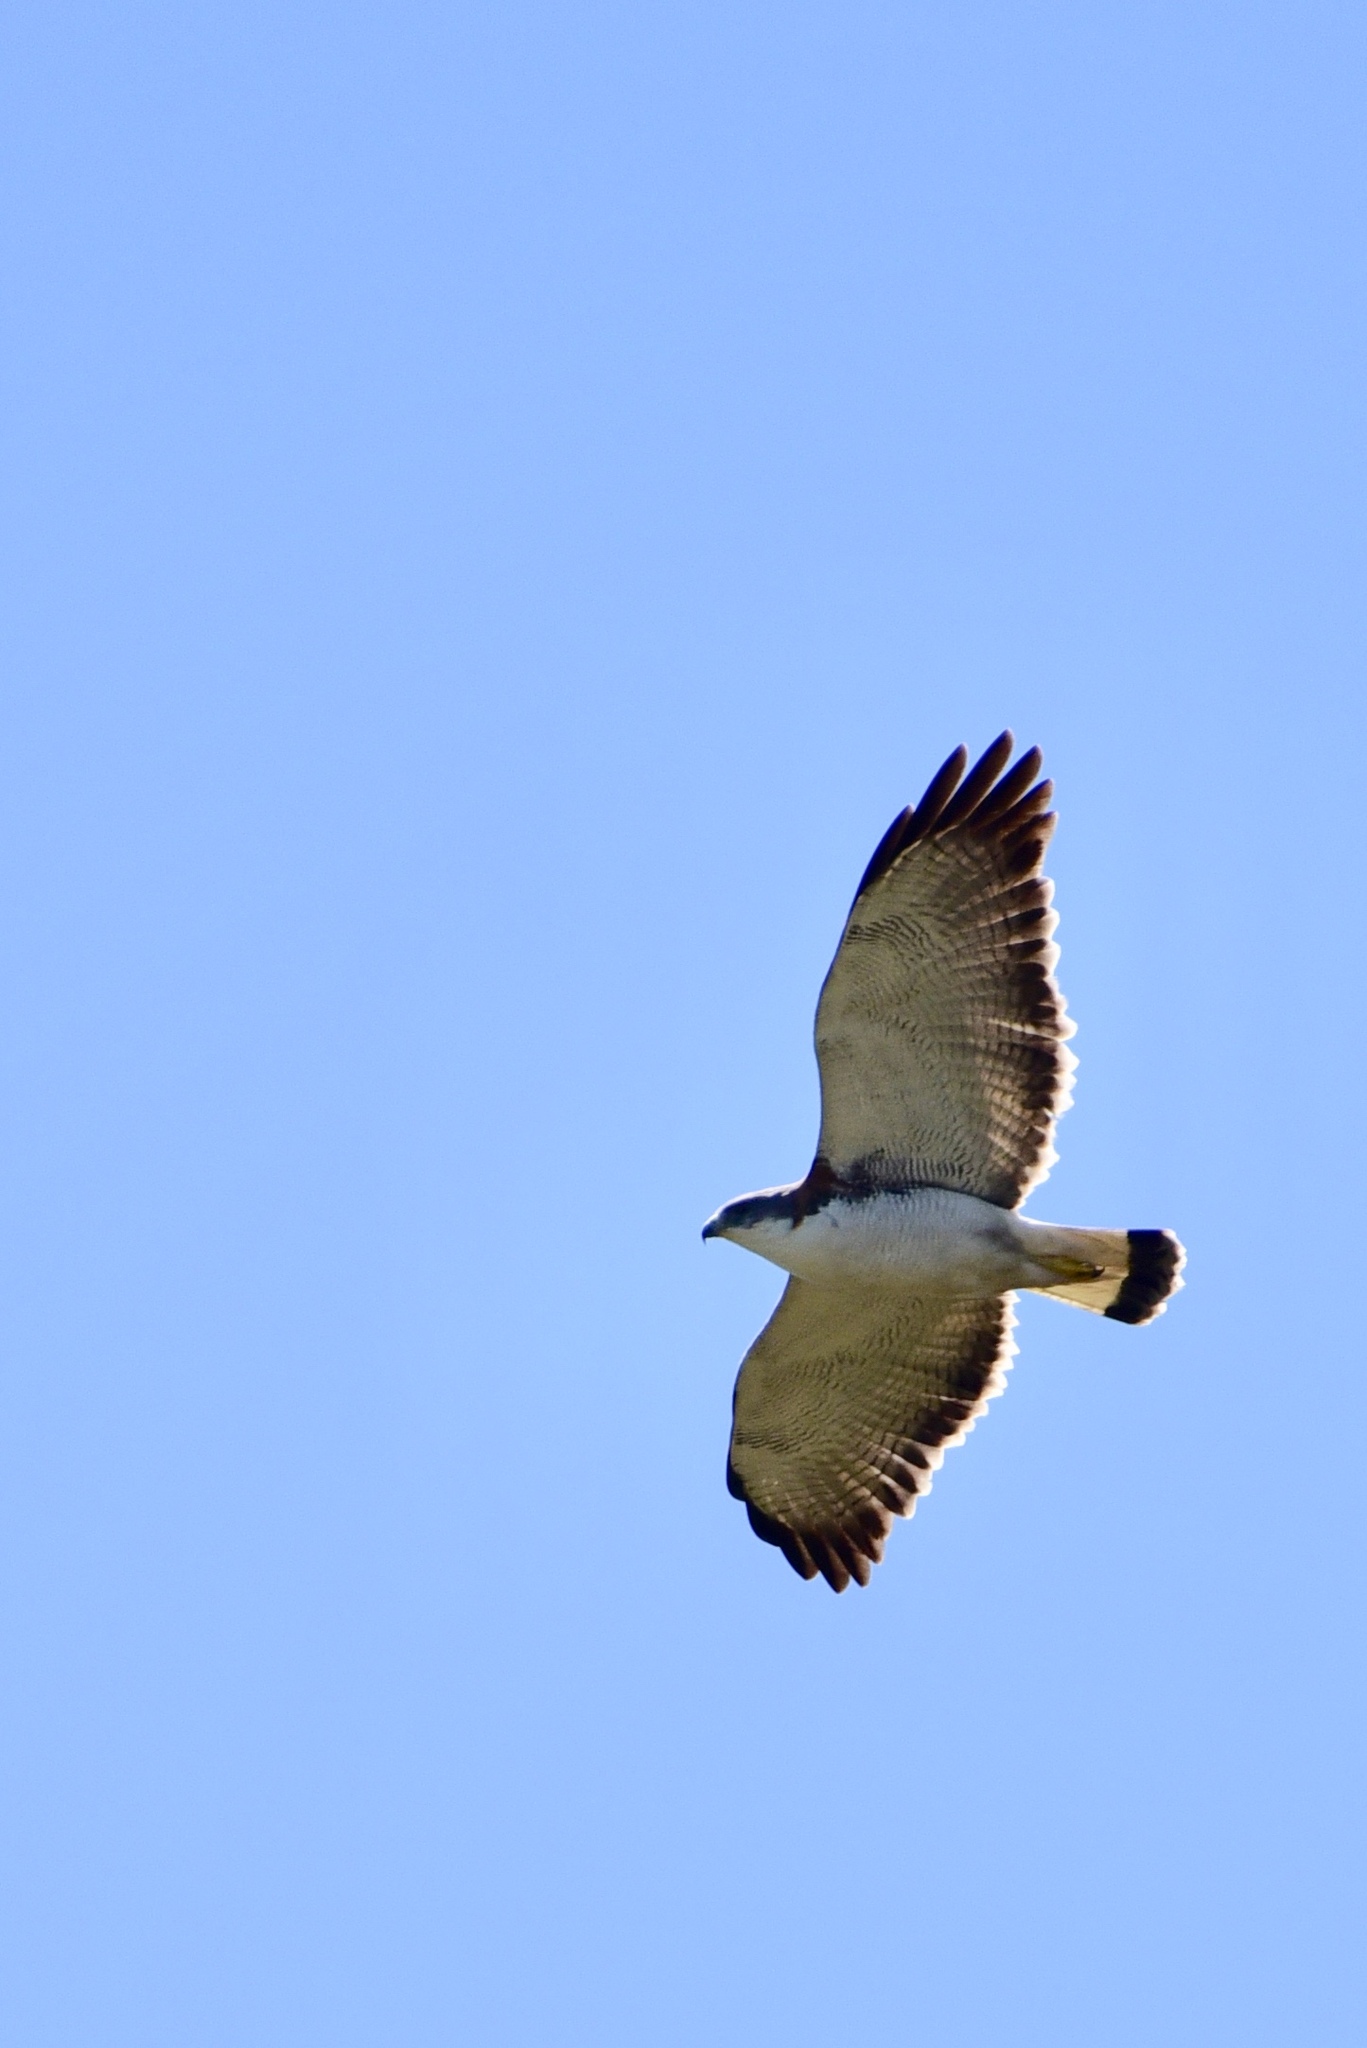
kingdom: Animalia
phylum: Chordata
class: Aves
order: Accipitriformes
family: Accipitridae
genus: Buteo
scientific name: Buteo polyosoma
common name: Variable hawk
